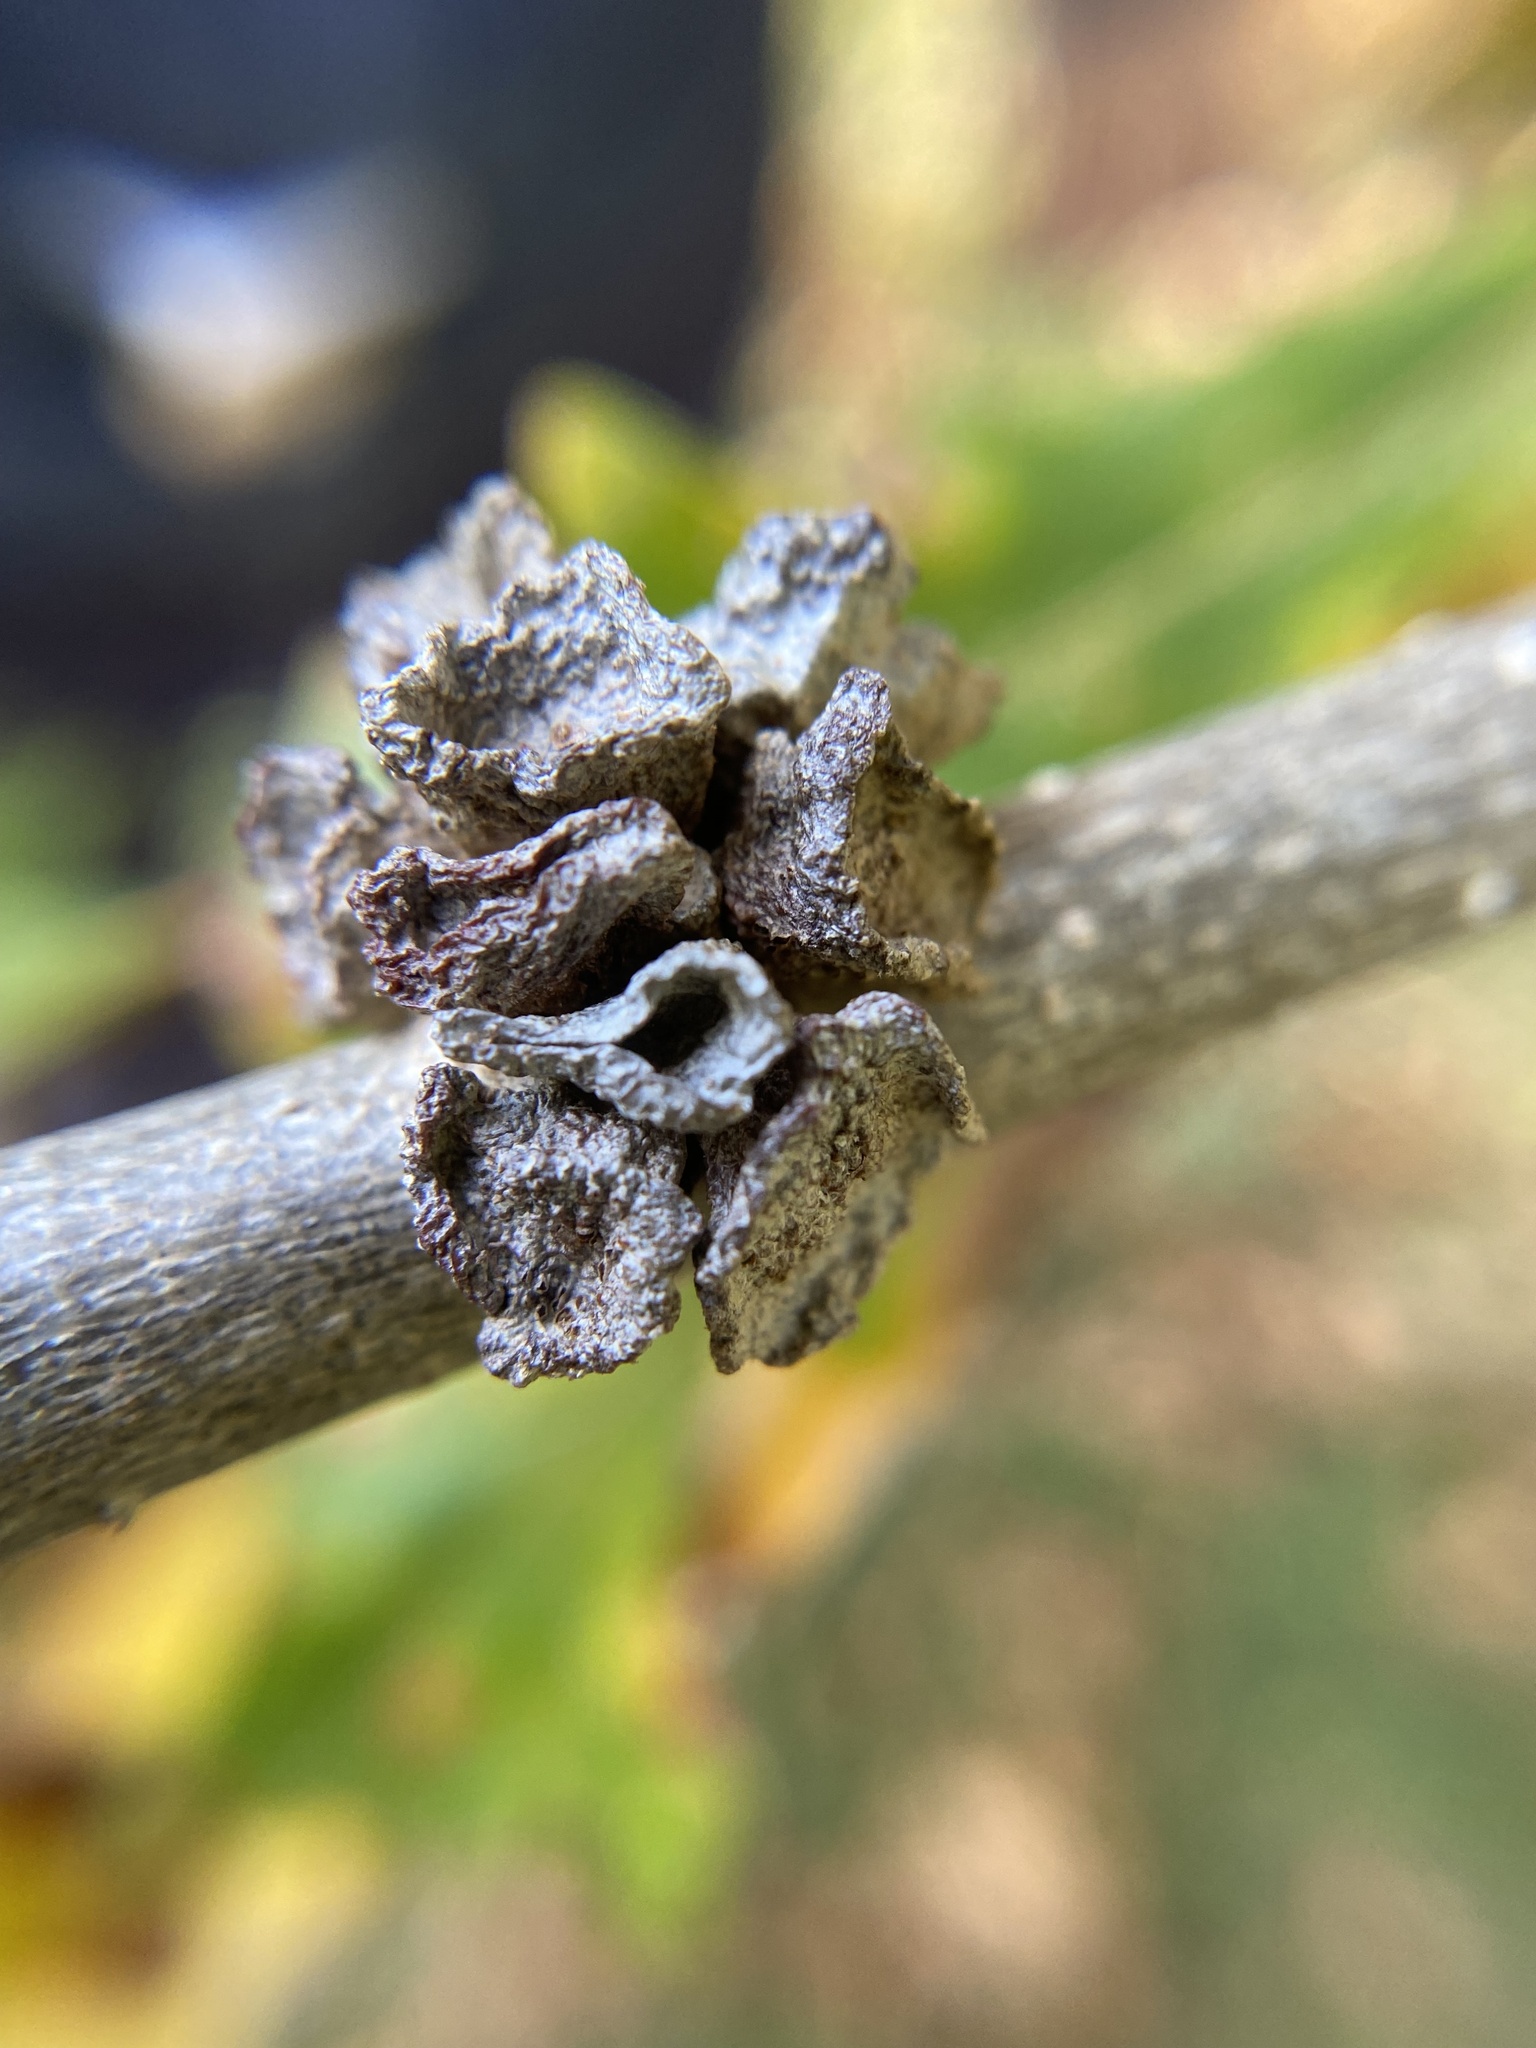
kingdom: Animalia
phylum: Arthropoda
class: Insecta
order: Hymenoptera
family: Cynipidae
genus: Andricus
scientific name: Andricus
